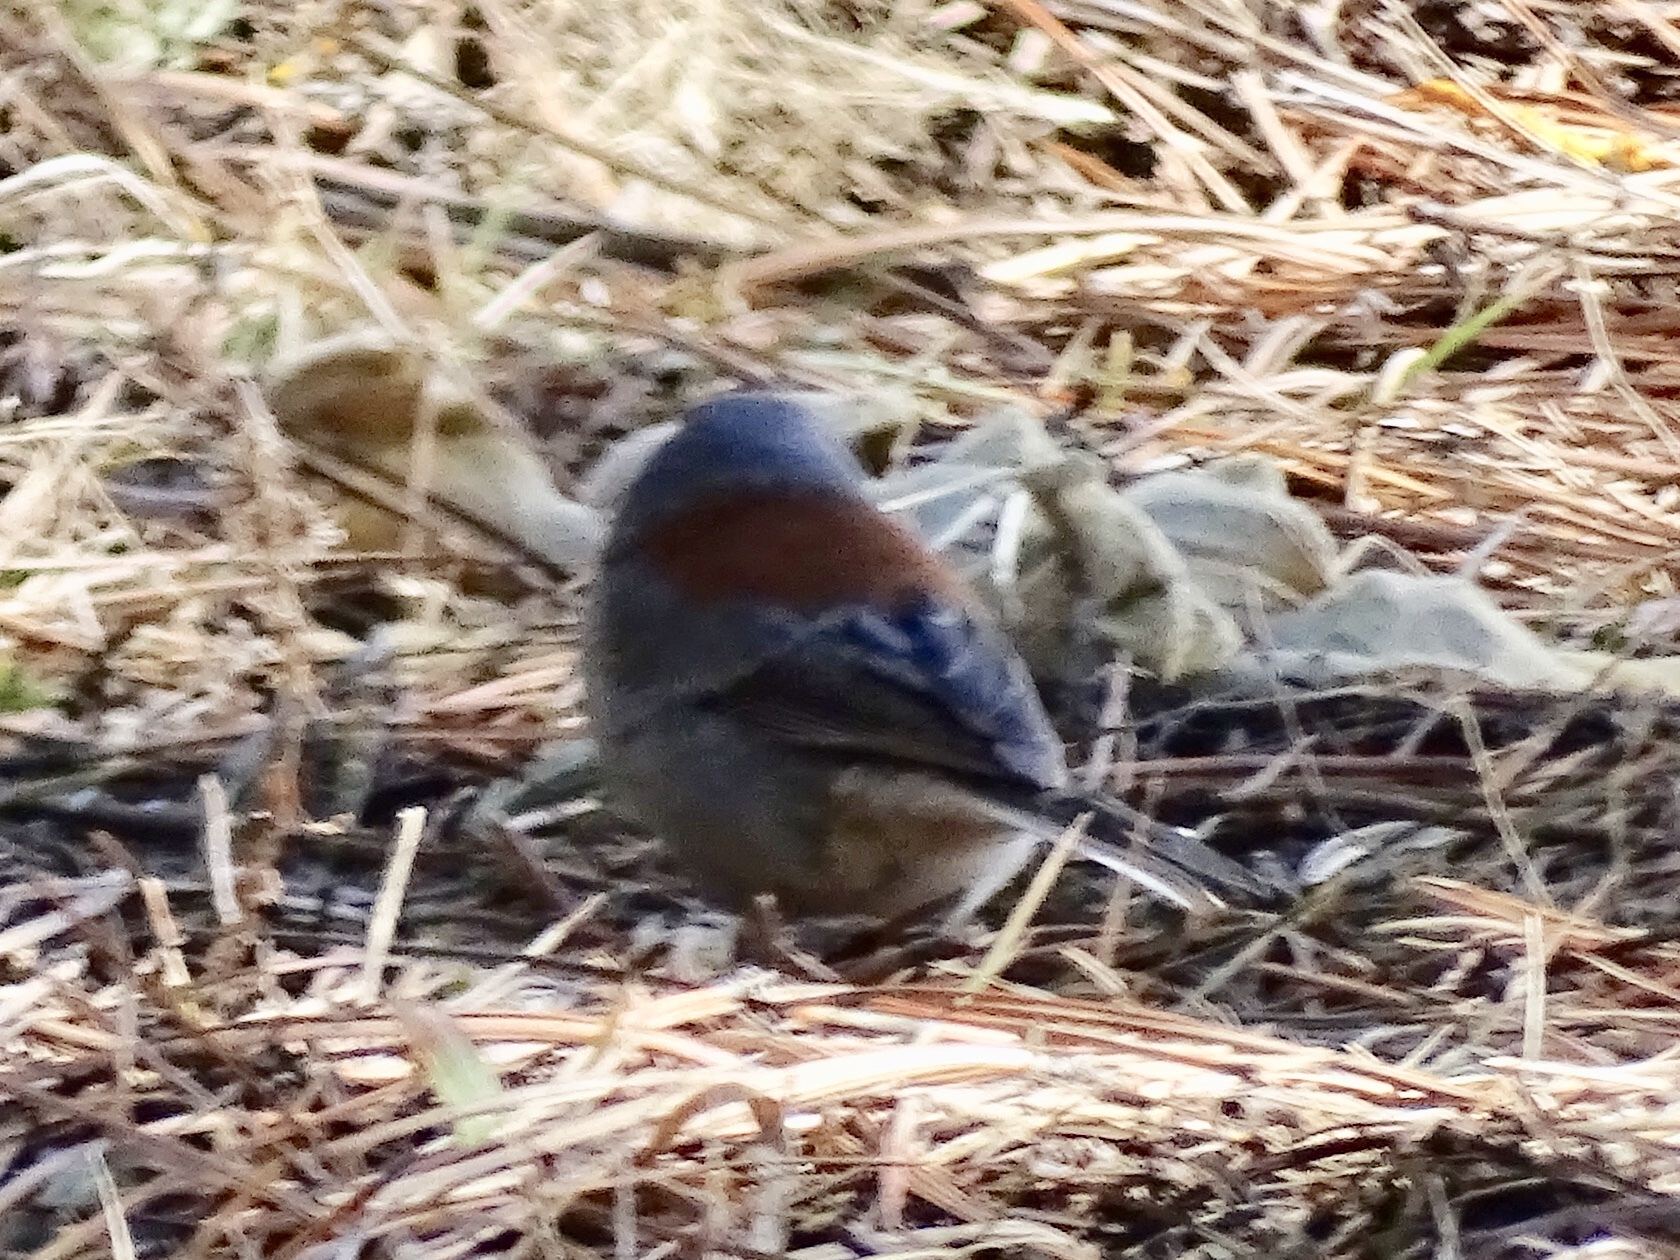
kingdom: Animalia
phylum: Chordata
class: Aves
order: Passeriformes
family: Passerellidae
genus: Junco
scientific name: Junco hyemalis
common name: Dark-eyed junco
